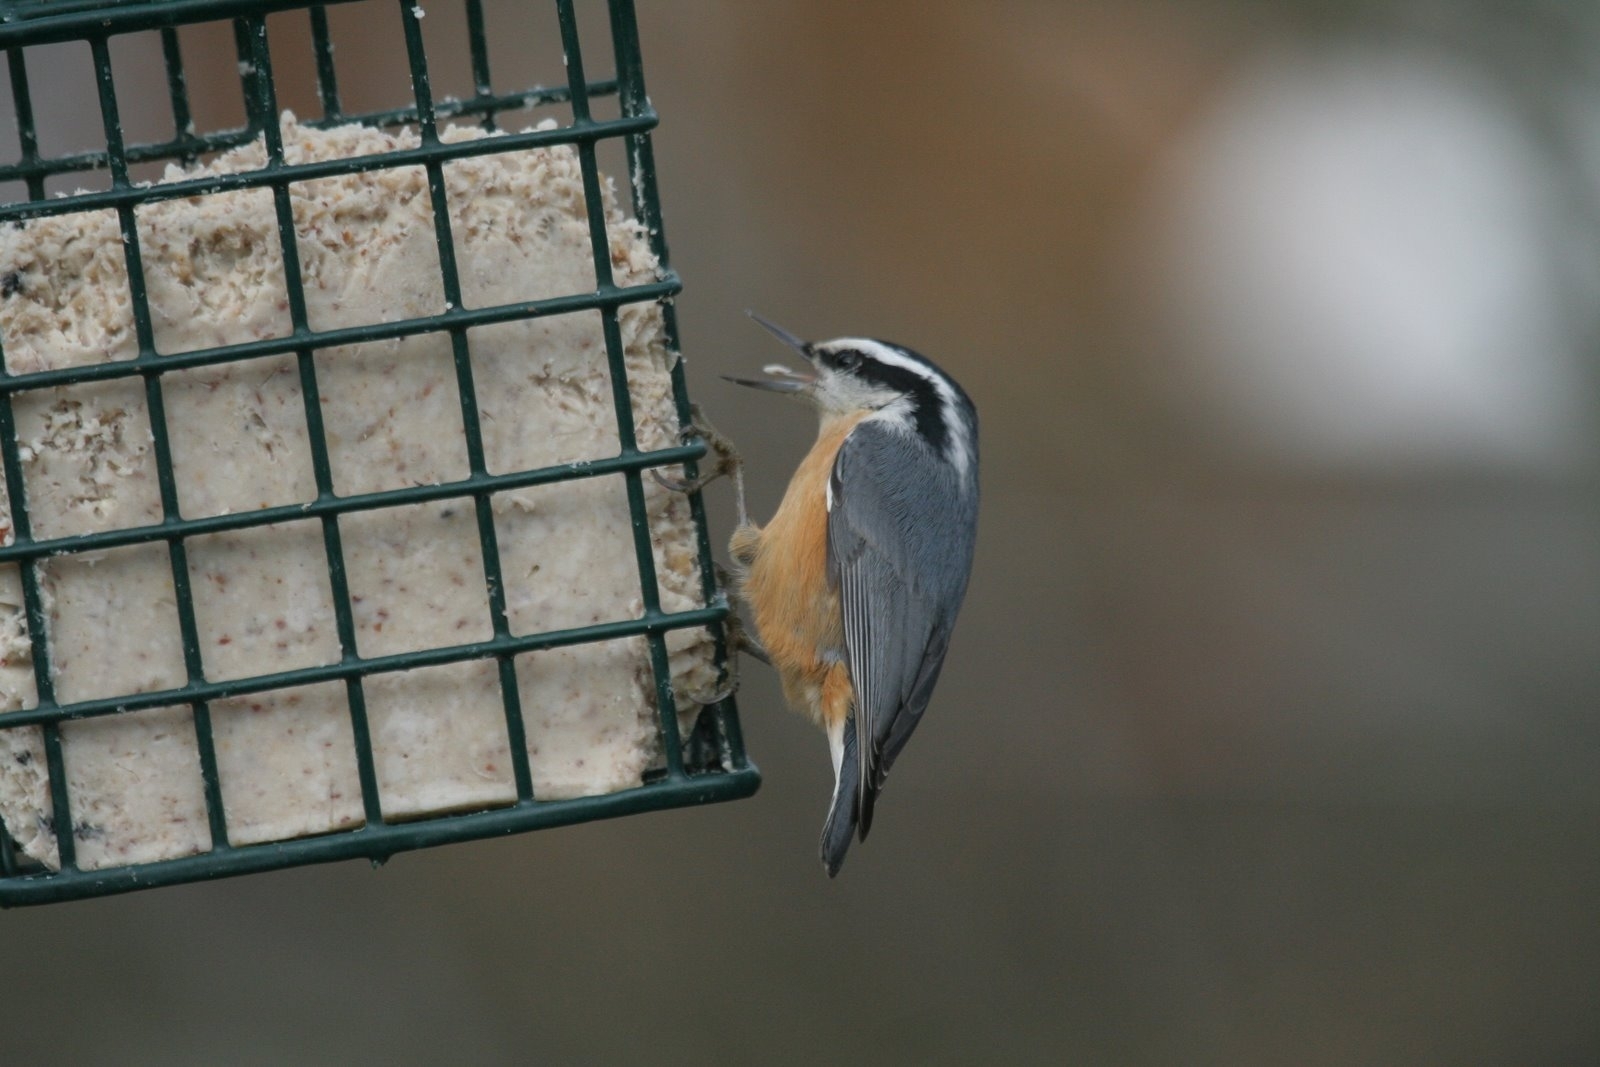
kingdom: Animalia
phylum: Chordata
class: Aves
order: Passeriformes
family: Sittidae
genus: Sitta
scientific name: Sitta canadensis
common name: Red-breasted nuthatch
